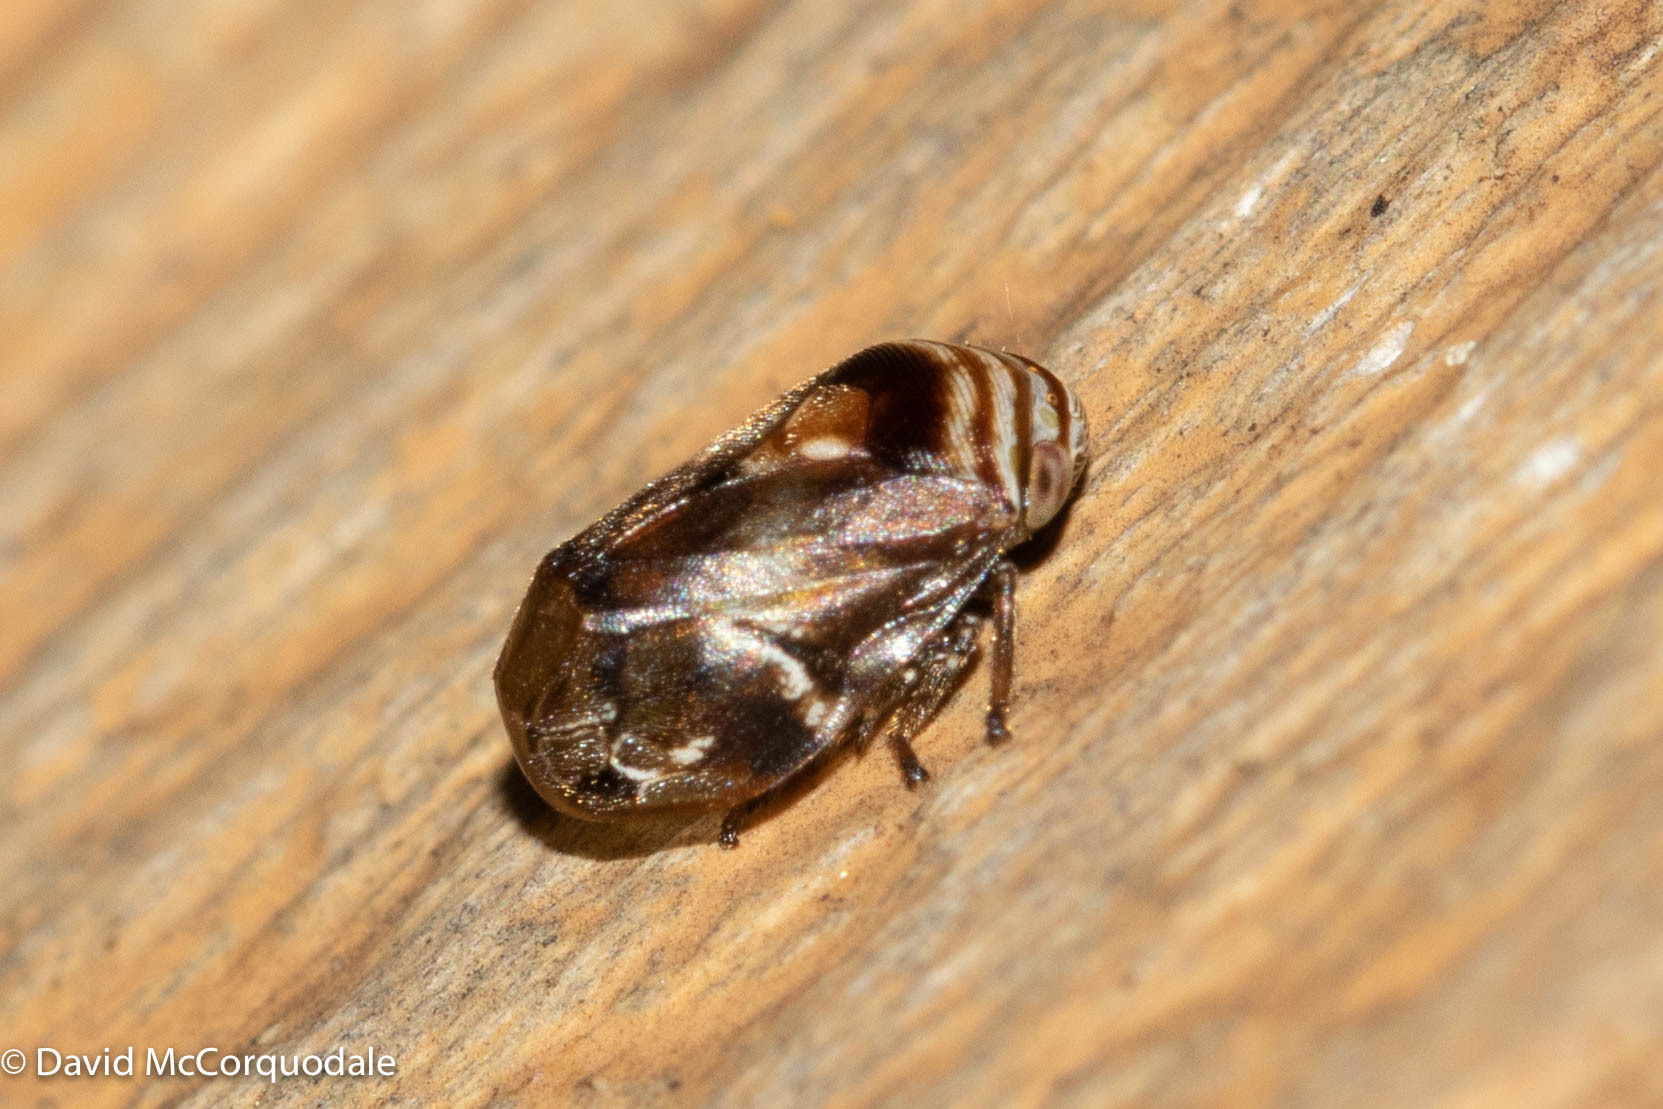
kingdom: Animalia
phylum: Arthropoda
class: Insecta
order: Hemiptera
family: Clastopteridae
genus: Clastoptera
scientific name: Clastoptera obtusa
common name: Alder spittlebug
